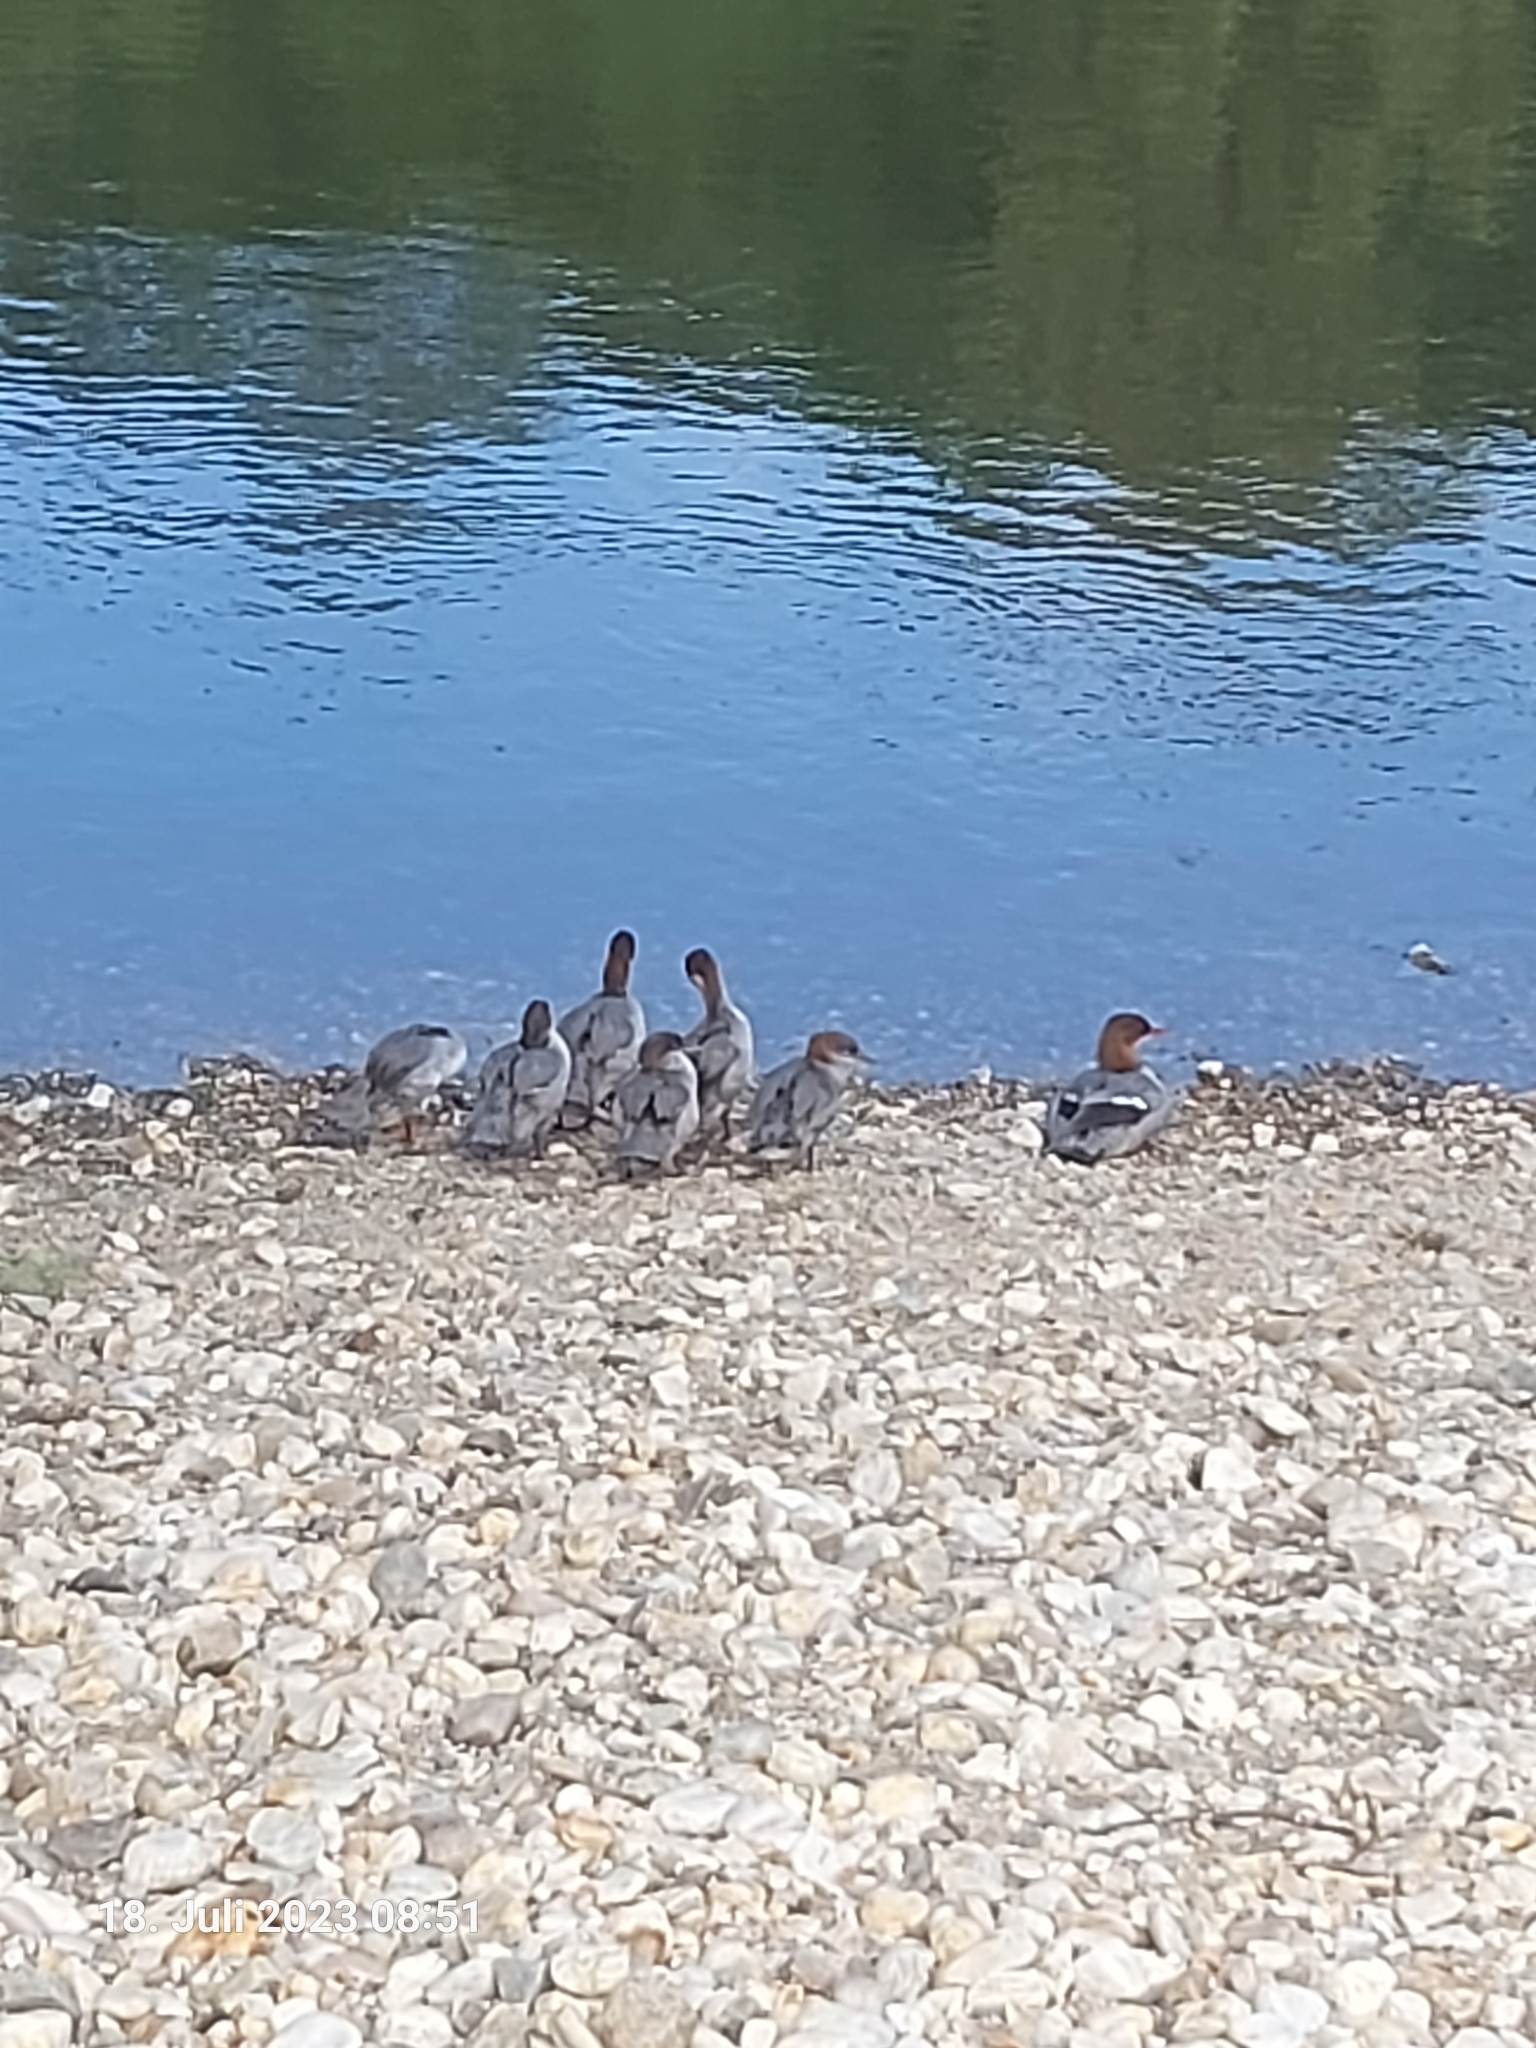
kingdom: Animalia
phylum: Chordata
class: Aves
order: Anseriformes
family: Anatidae
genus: Mergus
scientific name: Mergus merganser
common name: Common merganser
